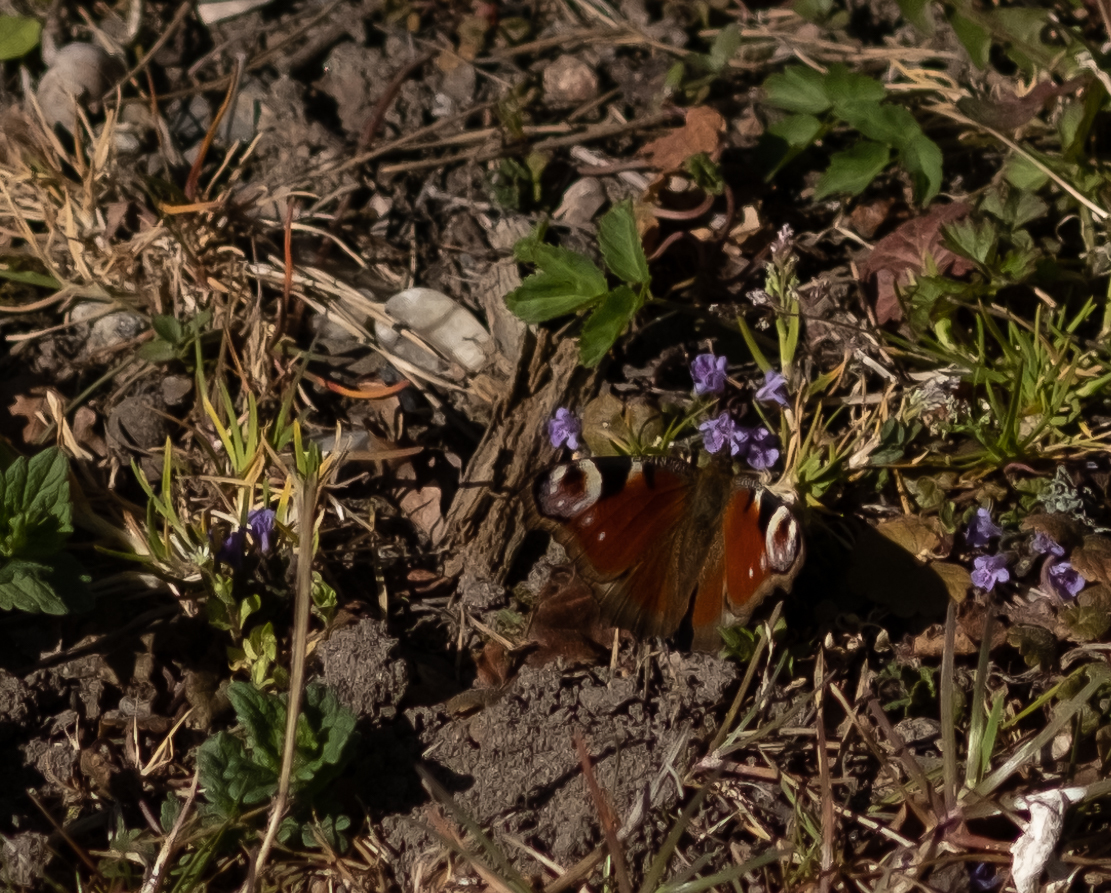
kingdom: Animalia
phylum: Arthropoda
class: Insecta
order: Lepidoptera
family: Nymphalidae
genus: Aglais
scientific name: Aglais io
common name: Peacock
